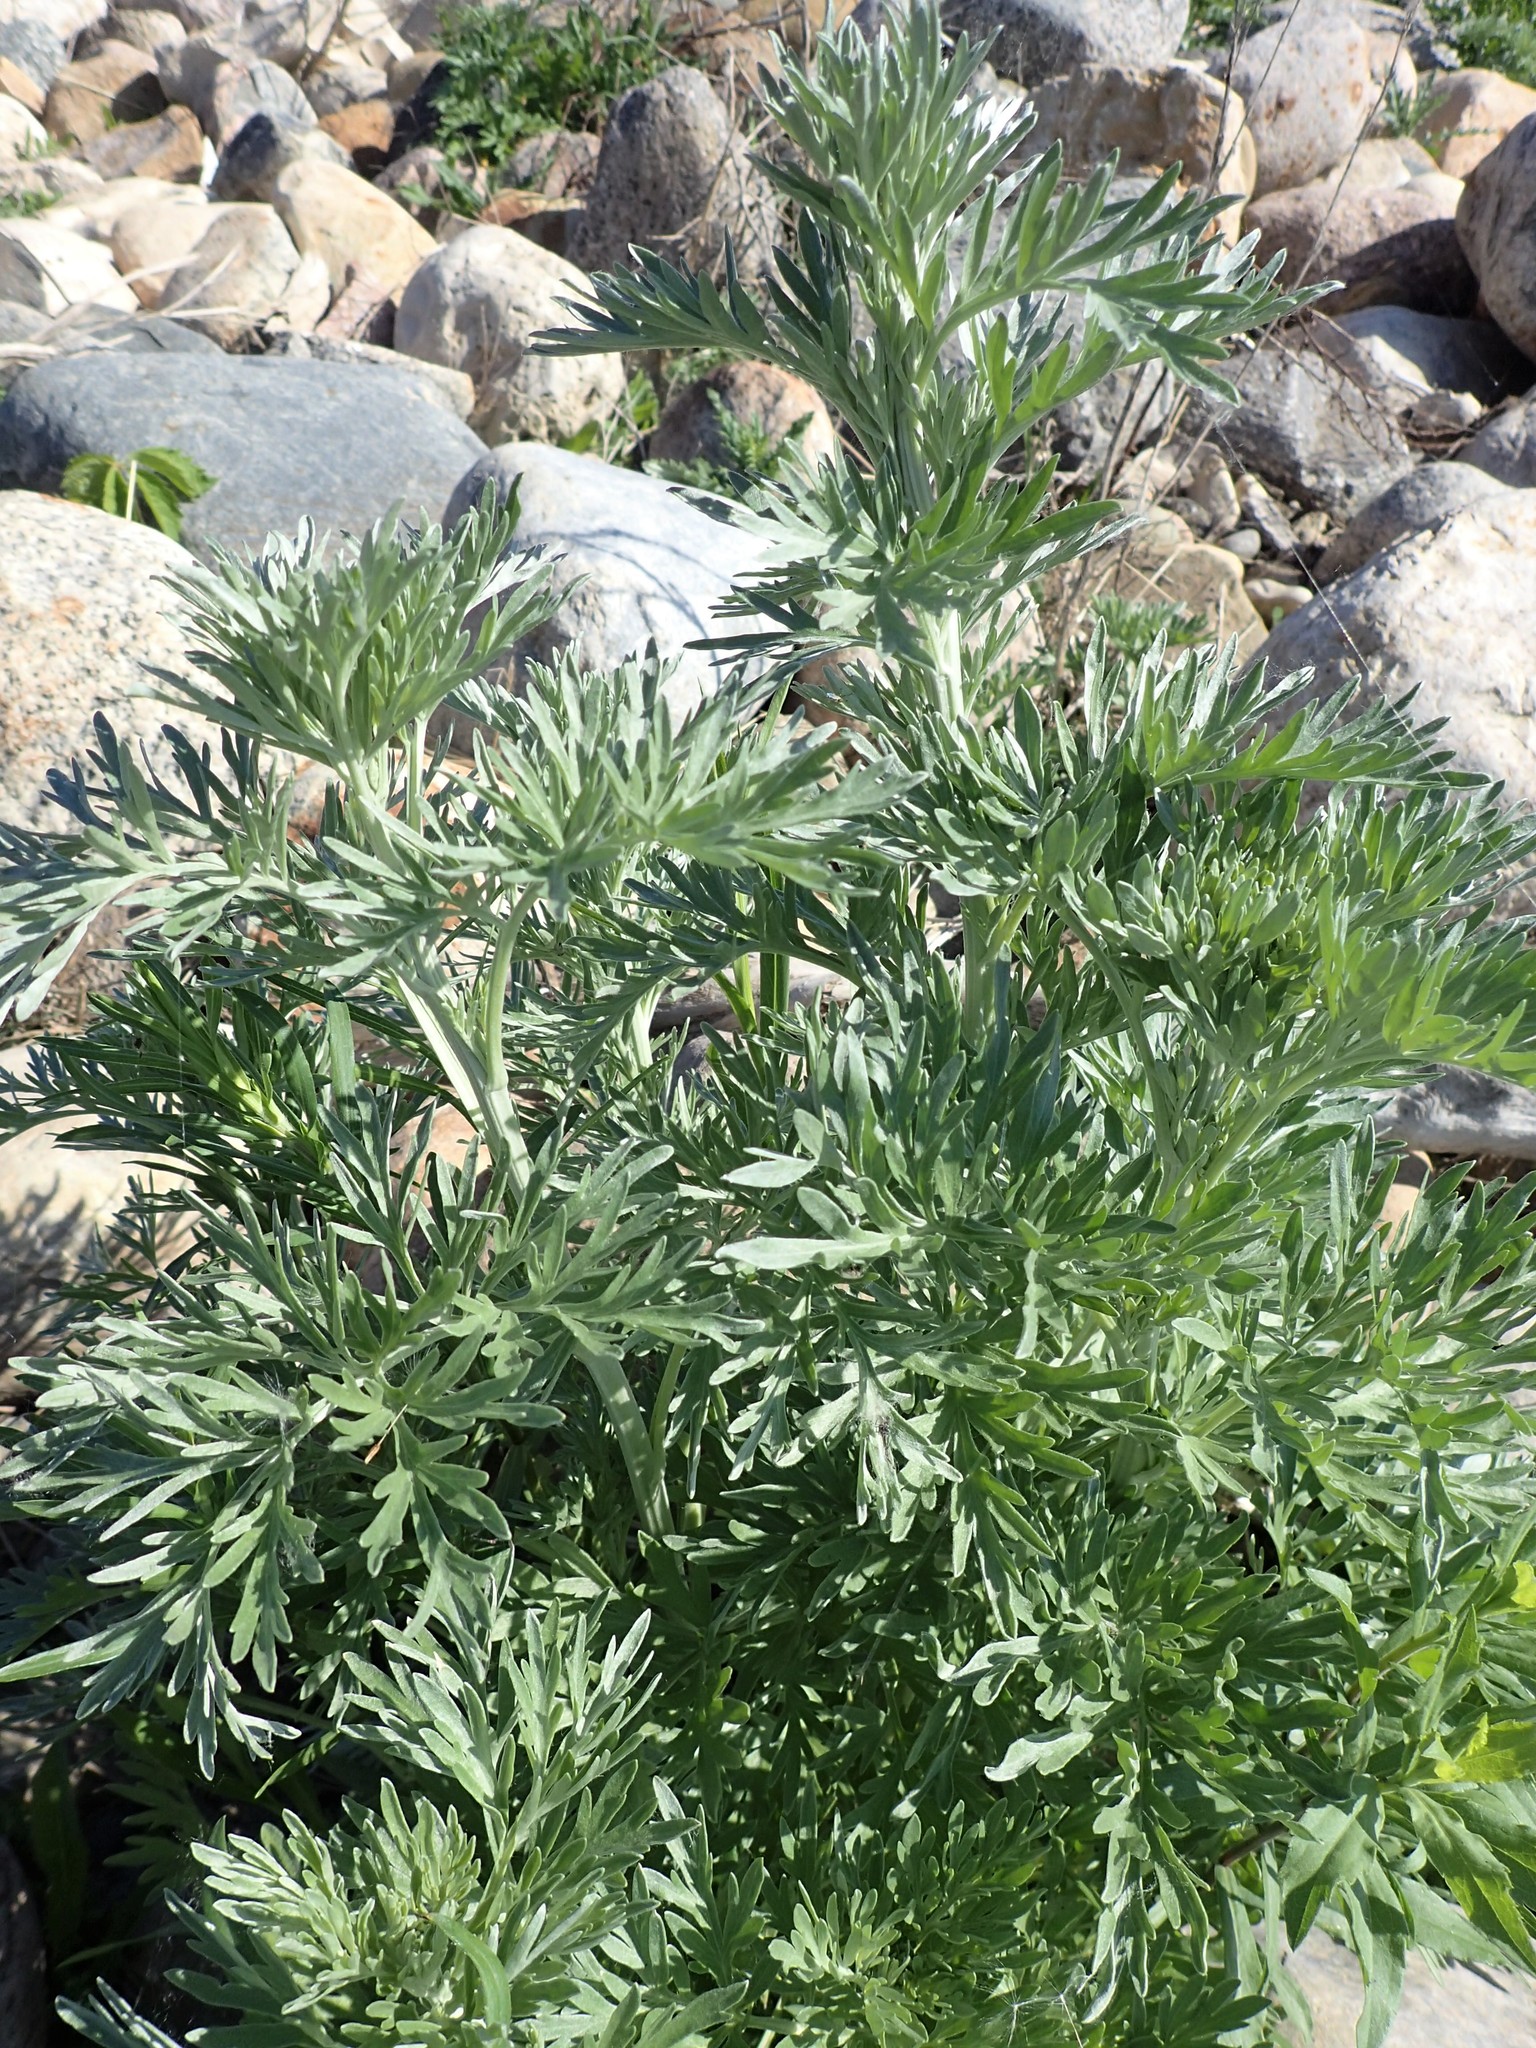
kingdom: Plantae
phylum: Tracheophyta
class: Magnoliopsida
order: Asterales
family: Asteraceae
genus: Artemisia
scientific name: Artemisia absinthium
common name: Wormwood
